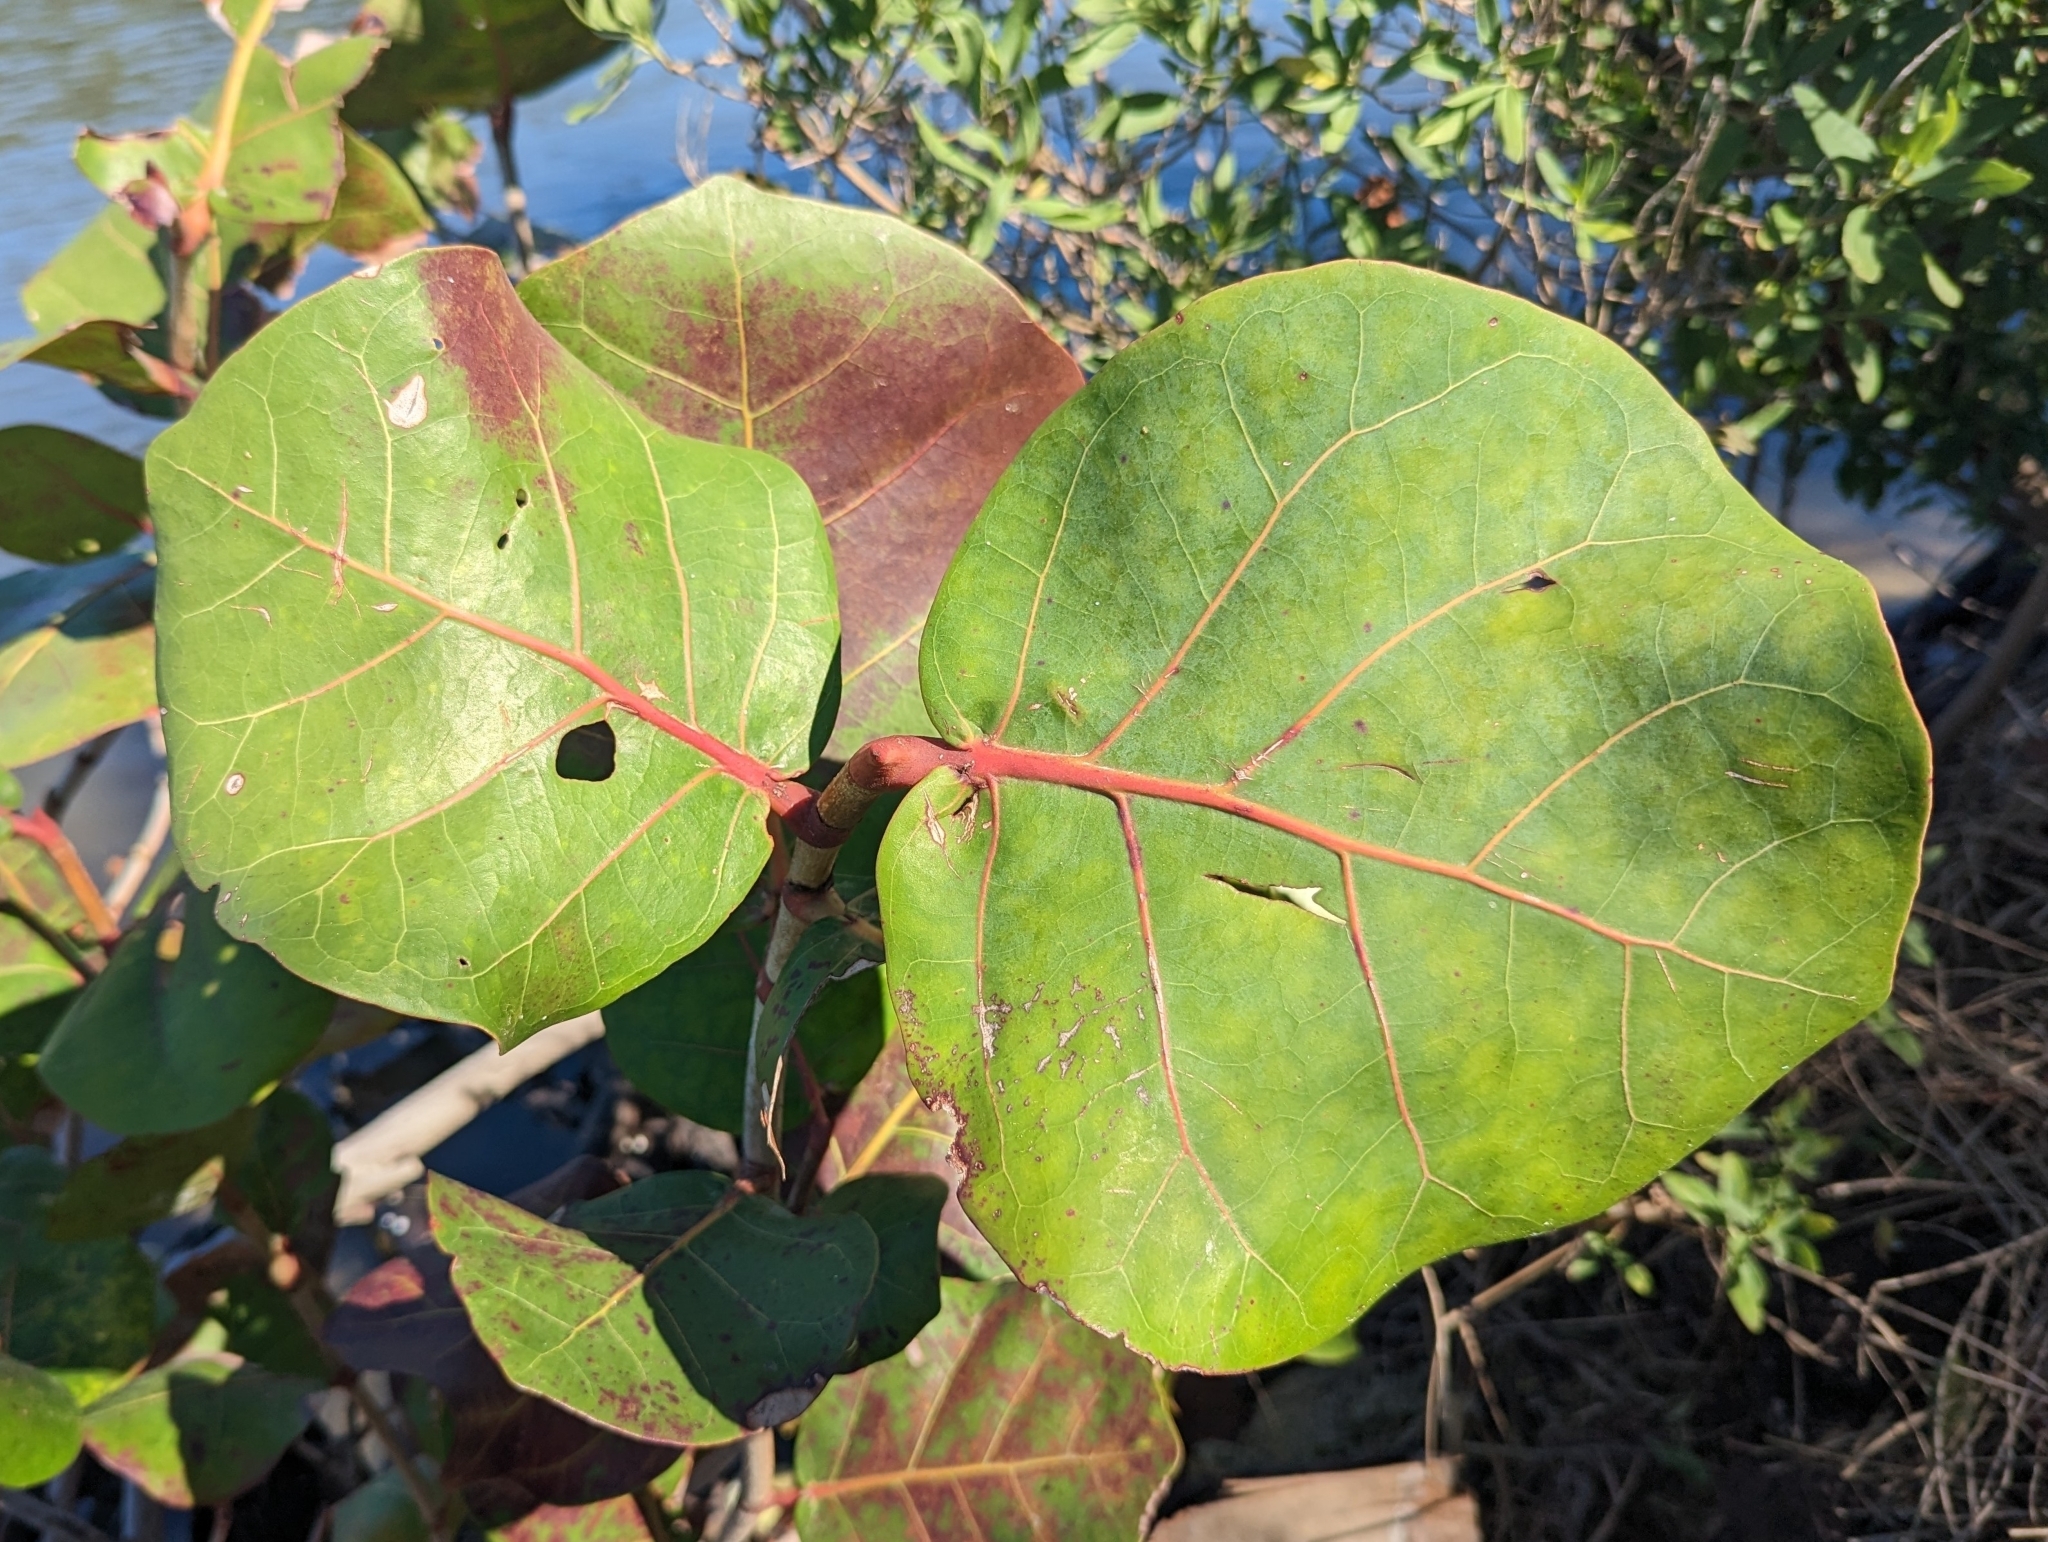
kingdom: Plantae
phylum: Tracheophyta
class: Magnoliopsida
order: Caryophyllales
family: Polygonaceae
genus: Coccoloba
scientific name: Coccoloba uvifera
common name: Seagrape
